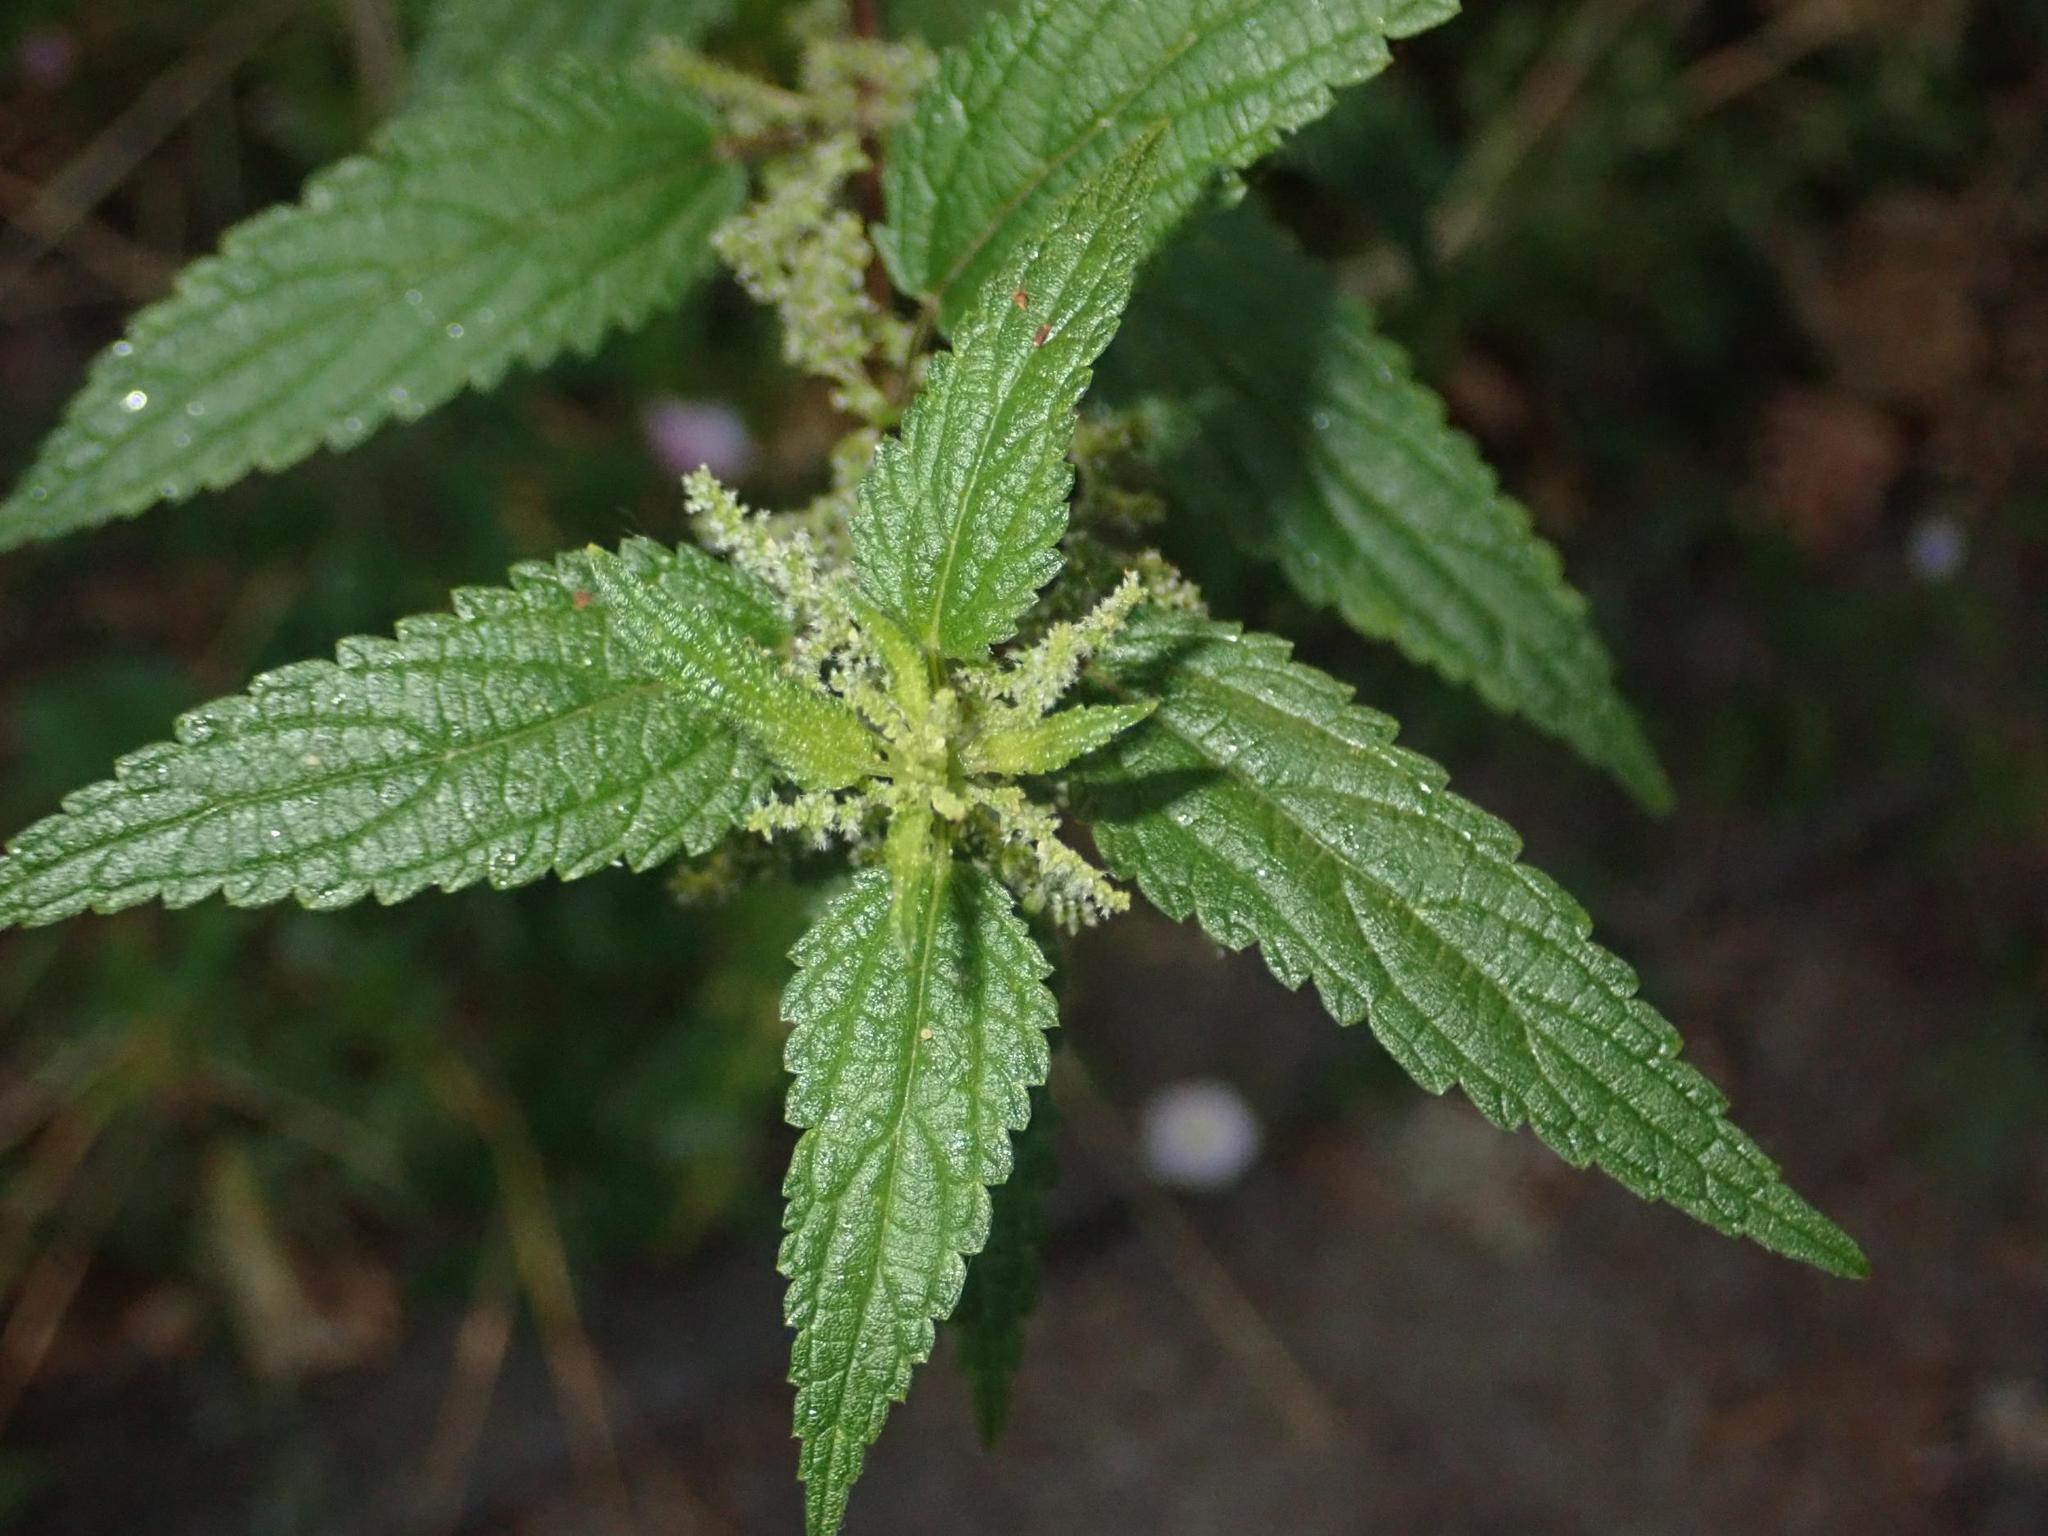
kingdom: Plantae
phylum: Tracheophyta
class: Magnoliopsida
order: Rosales
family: Urticaceae
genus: Urtica
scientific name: Urtica dioica
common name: Common nettle
